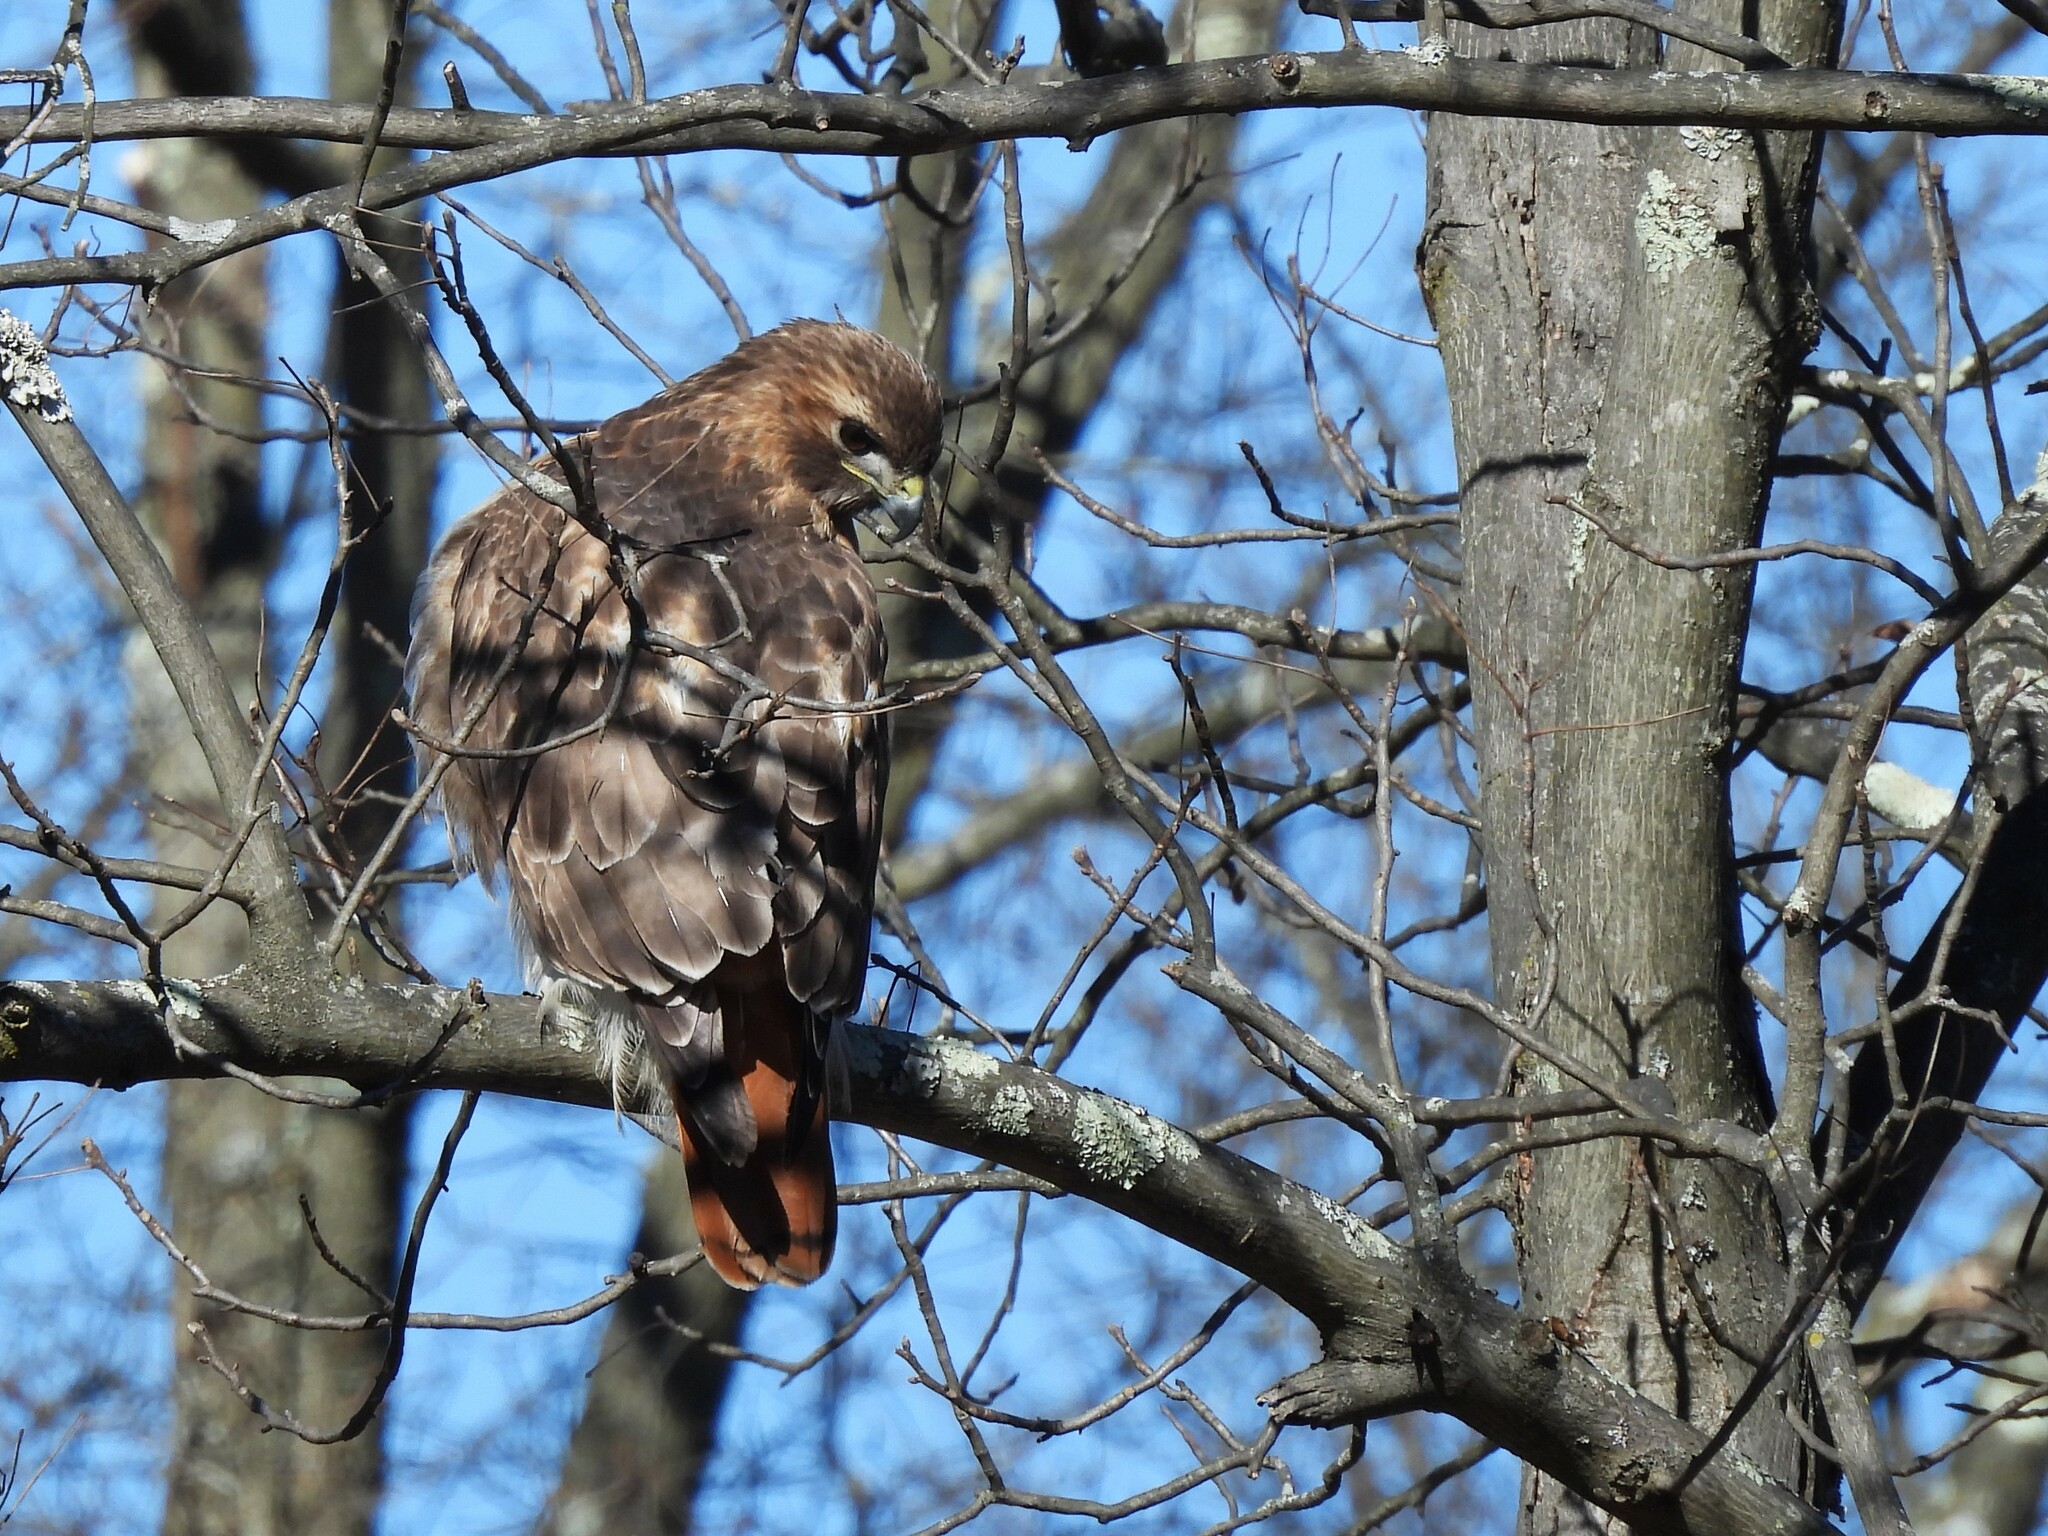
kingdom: Animalia
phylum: Chordata
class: Aves
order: Accipitriformes
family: Accipitridae
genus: Buteo
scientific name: Buteo jamaicensis
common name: Red-tailed hawk
